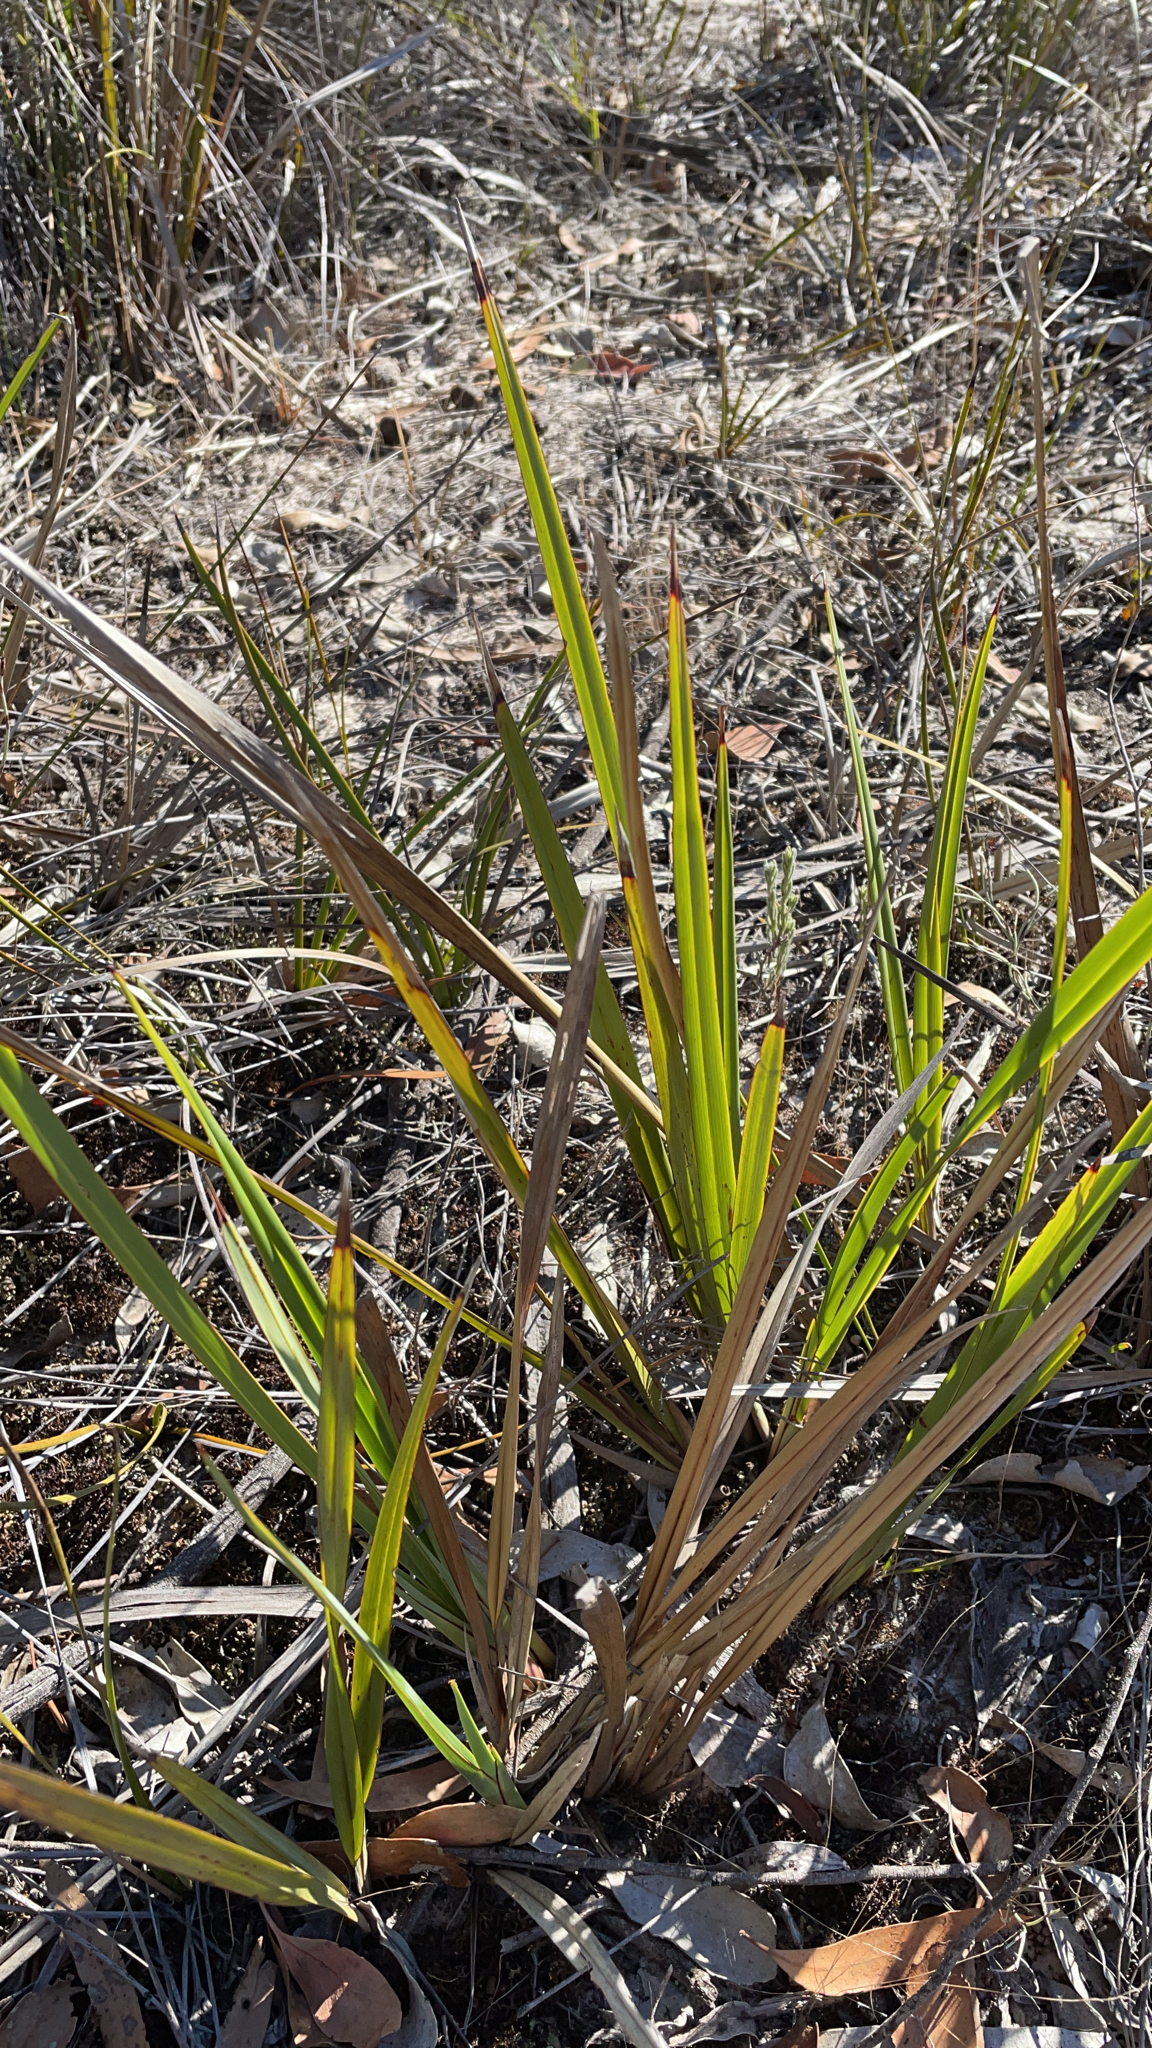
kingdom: Plantae
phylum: Tracheophyta
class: Liliopsida
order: Asparagales
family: Asphodelaceae
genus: Dianella
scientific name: Dianella revoluta
